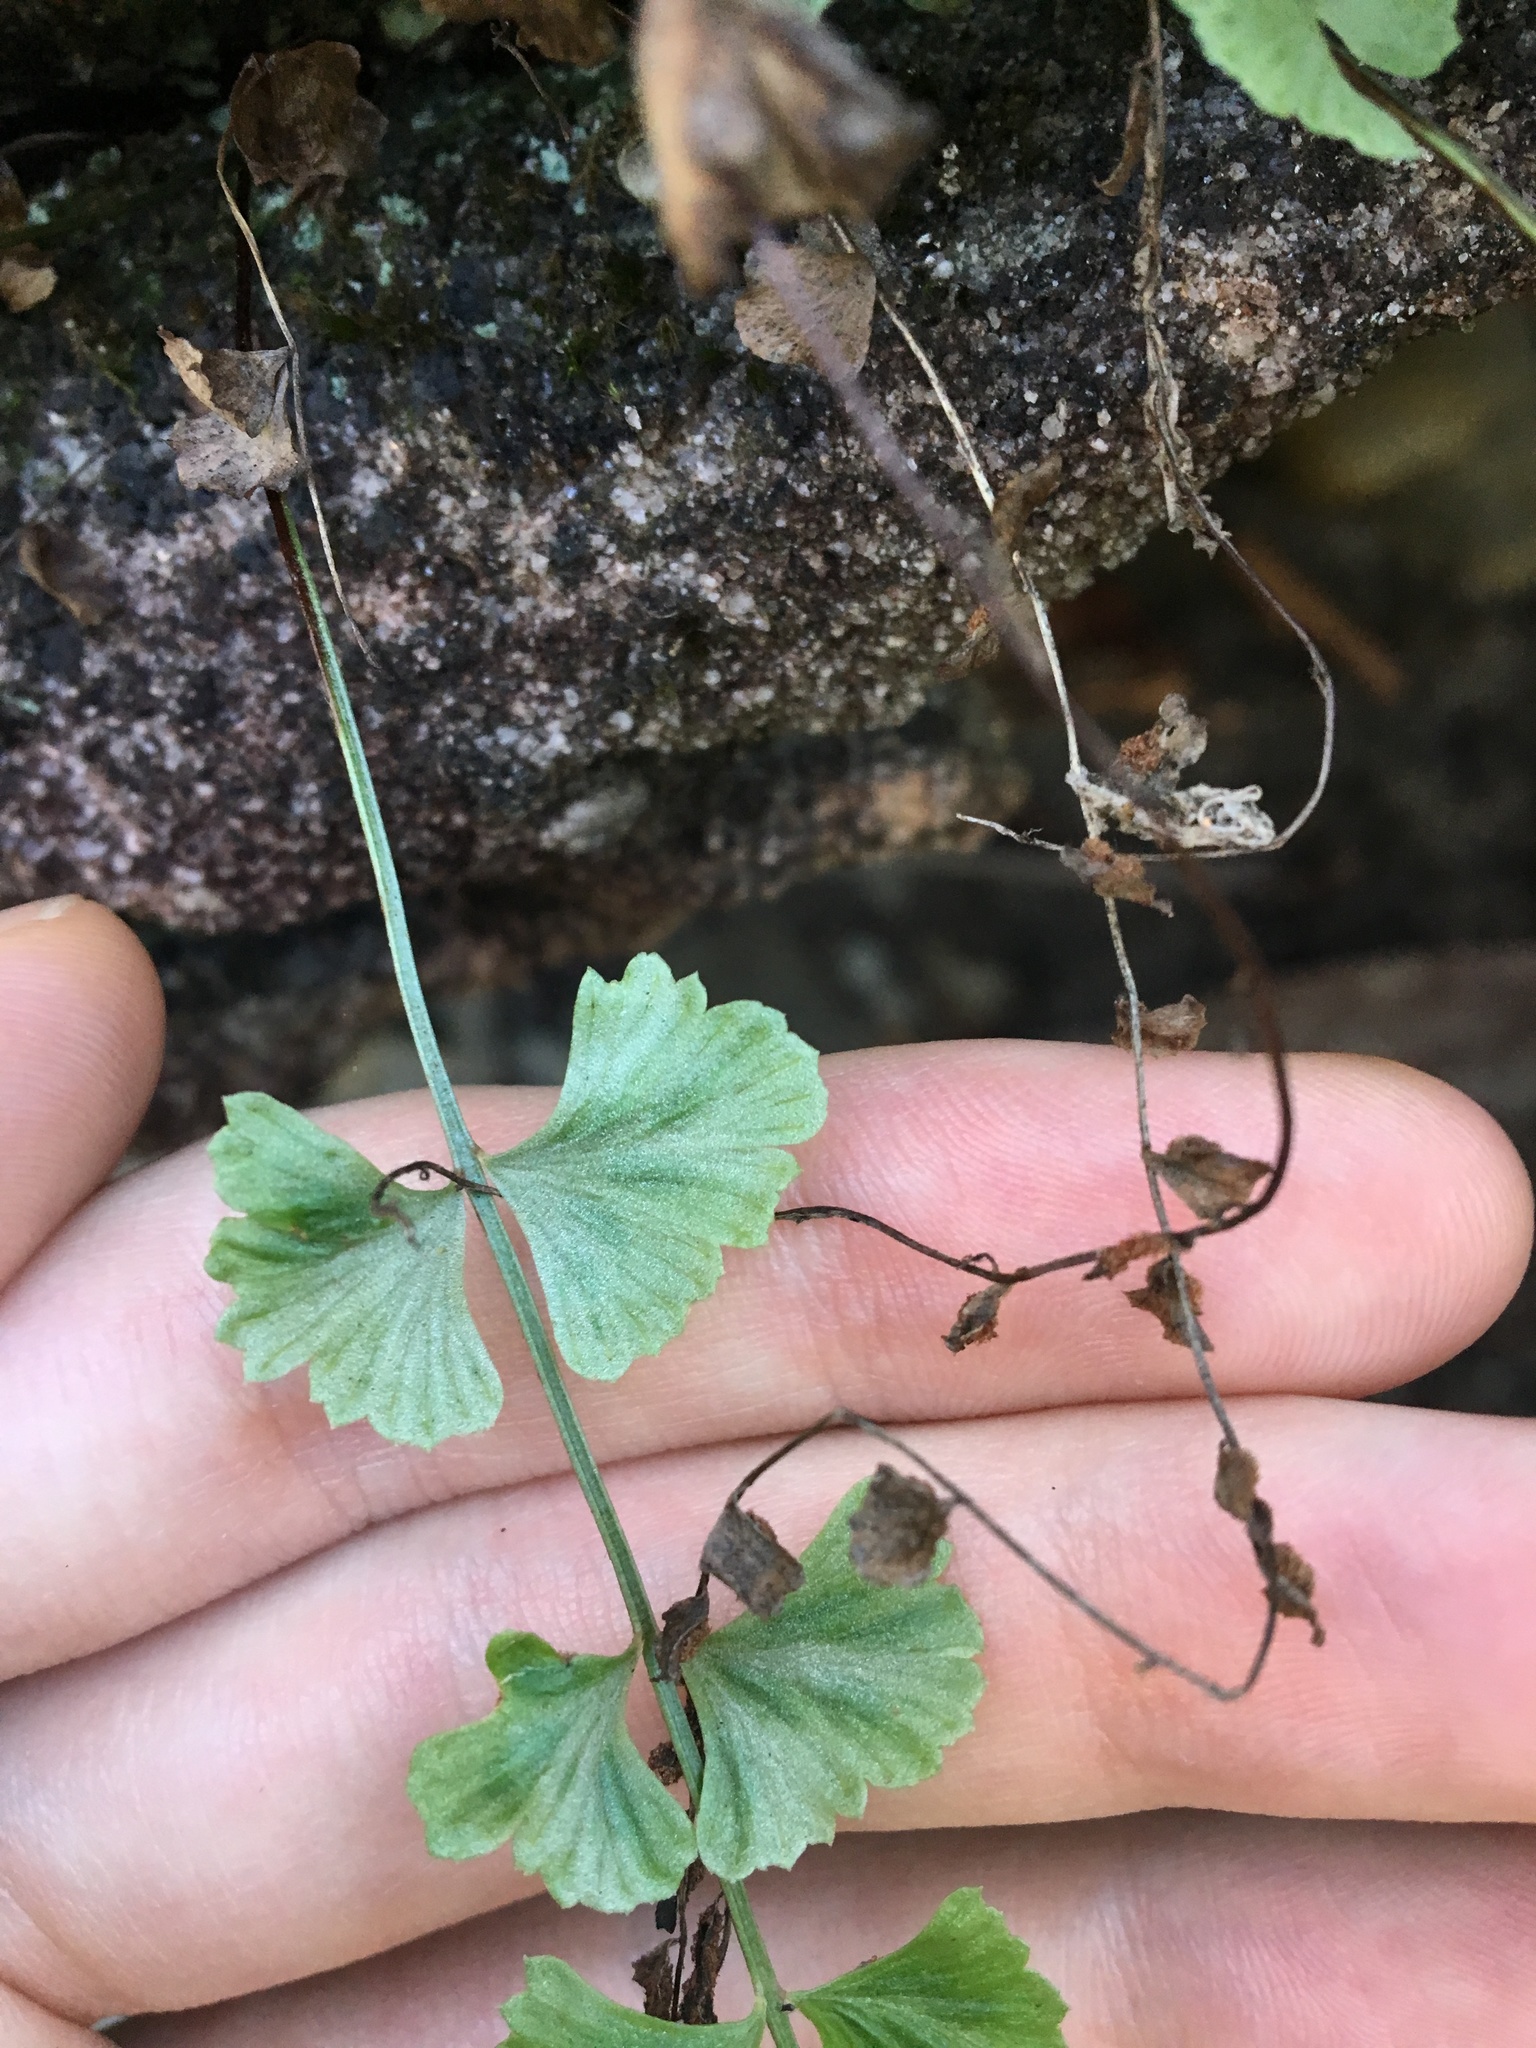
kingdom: Plantae
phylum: Tracheophyta
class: Polypodiopsida
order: Polypodiales
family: Aspleniaceae
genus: Asplenium
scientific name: Asplenium flabellifolium
